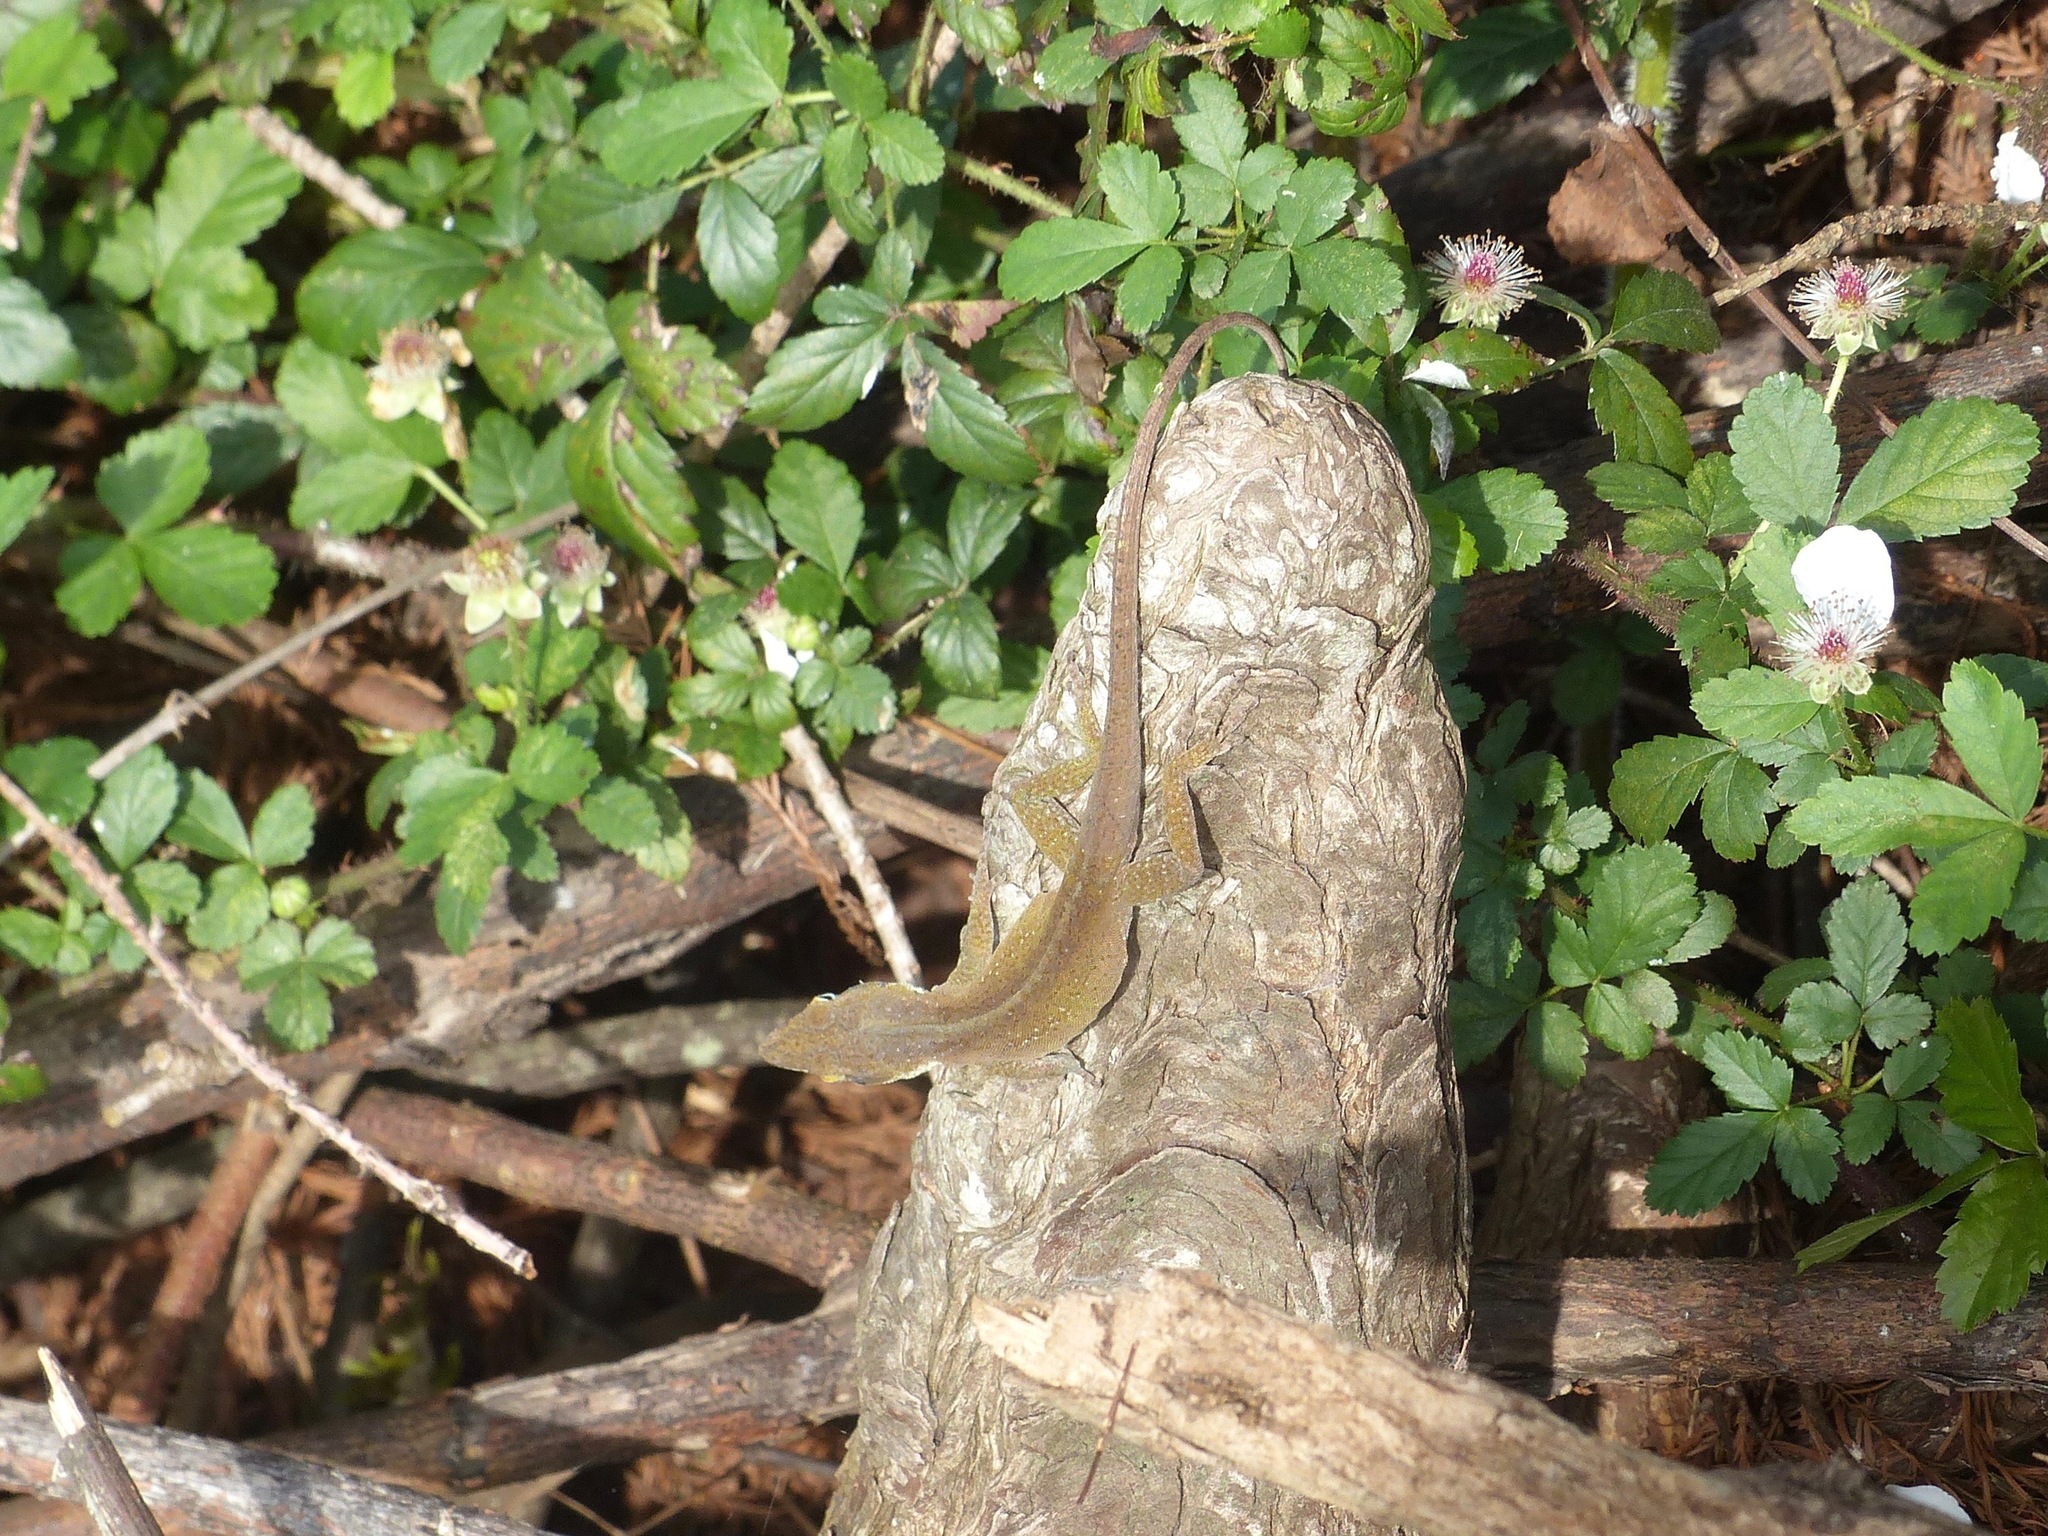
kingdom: Animalia
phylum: Chordata
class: Squamata
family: Dactyloidae
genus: Anolis
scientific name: Anolis carolinensis
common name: Green anole
